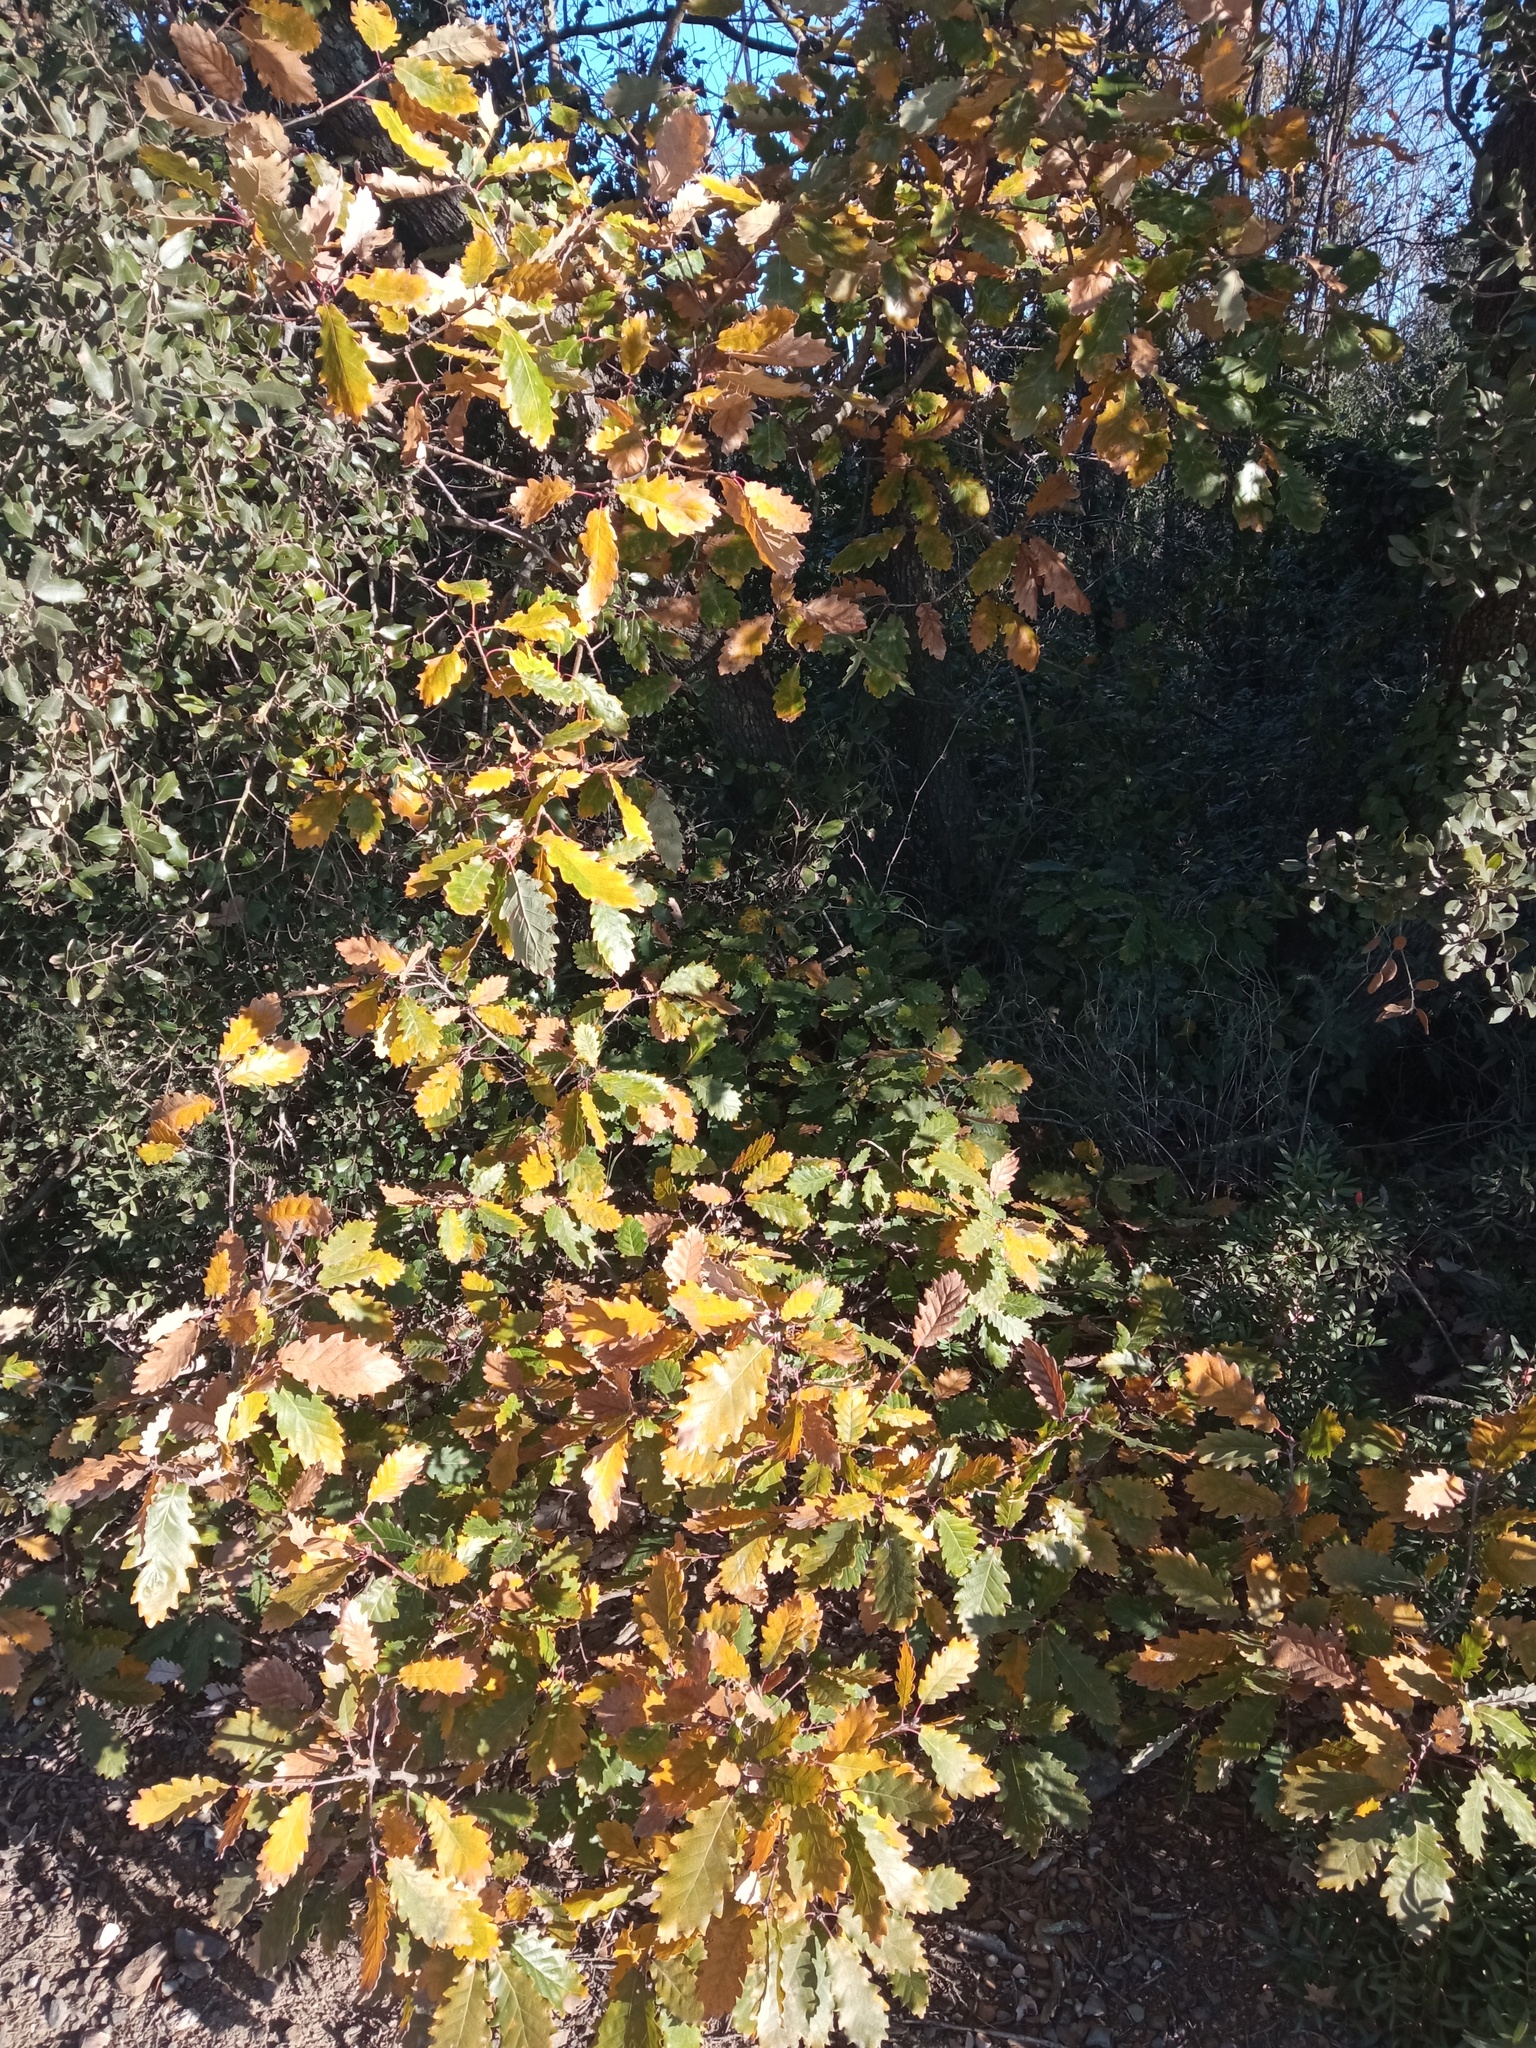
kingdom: Plantae
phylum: Tracheophyta
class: Magnoliopsida
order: Fagales
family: Fagaceae
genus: Quercus
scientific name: Quercus canariensis
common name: Algerian oak
